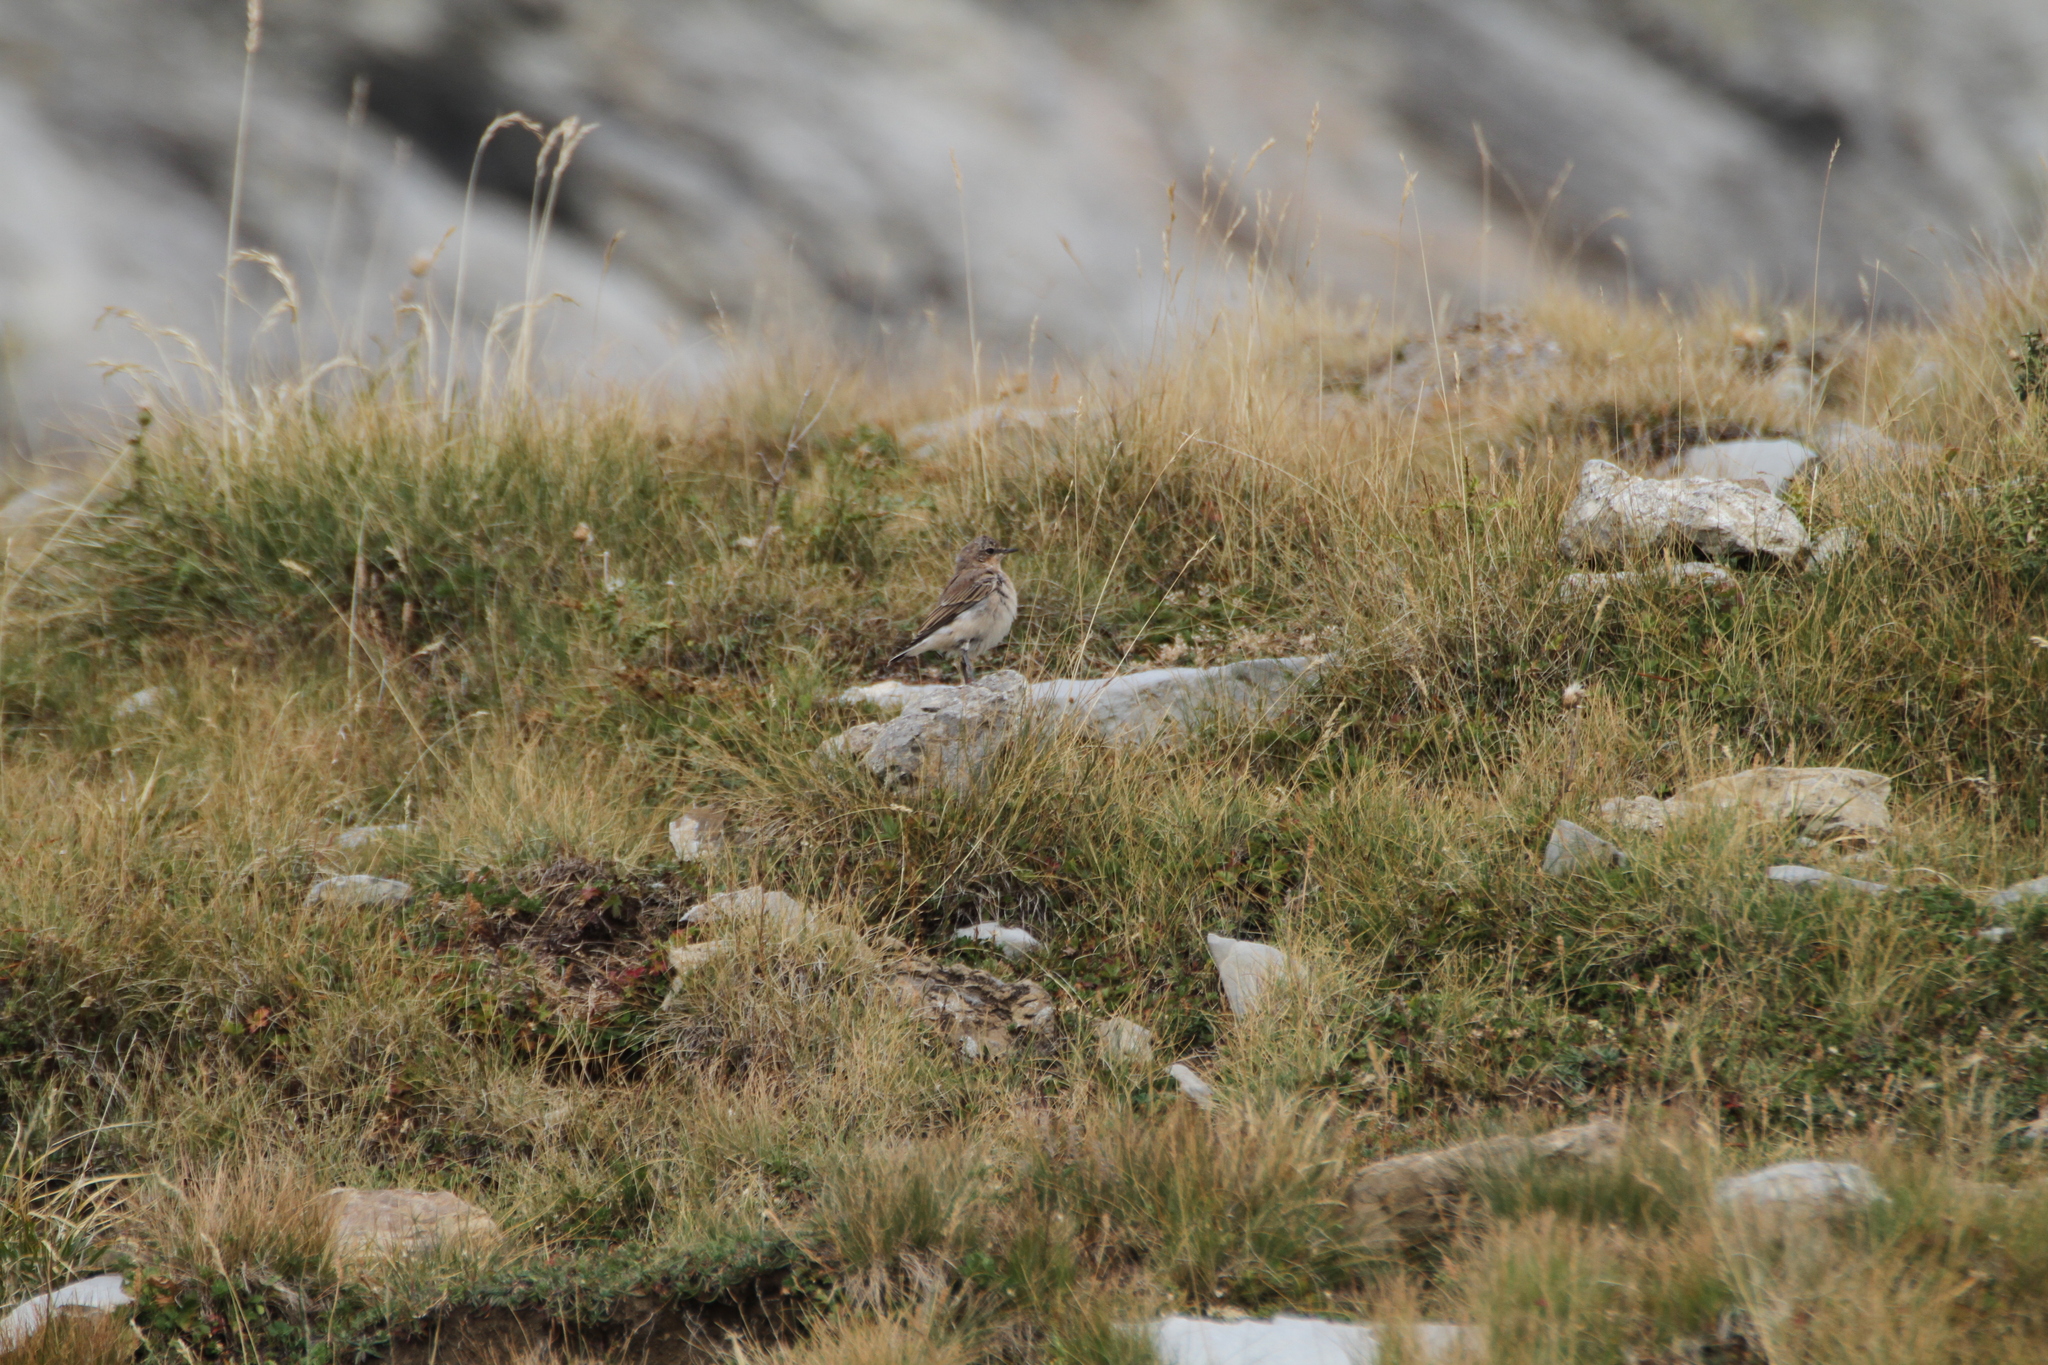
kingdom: Animalia
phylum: Chordata
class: Aves
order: Passeriformes
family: Muscicapidae
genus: Oenanthe
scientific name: Oenanthe oenanthe
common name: Northern wheatear
